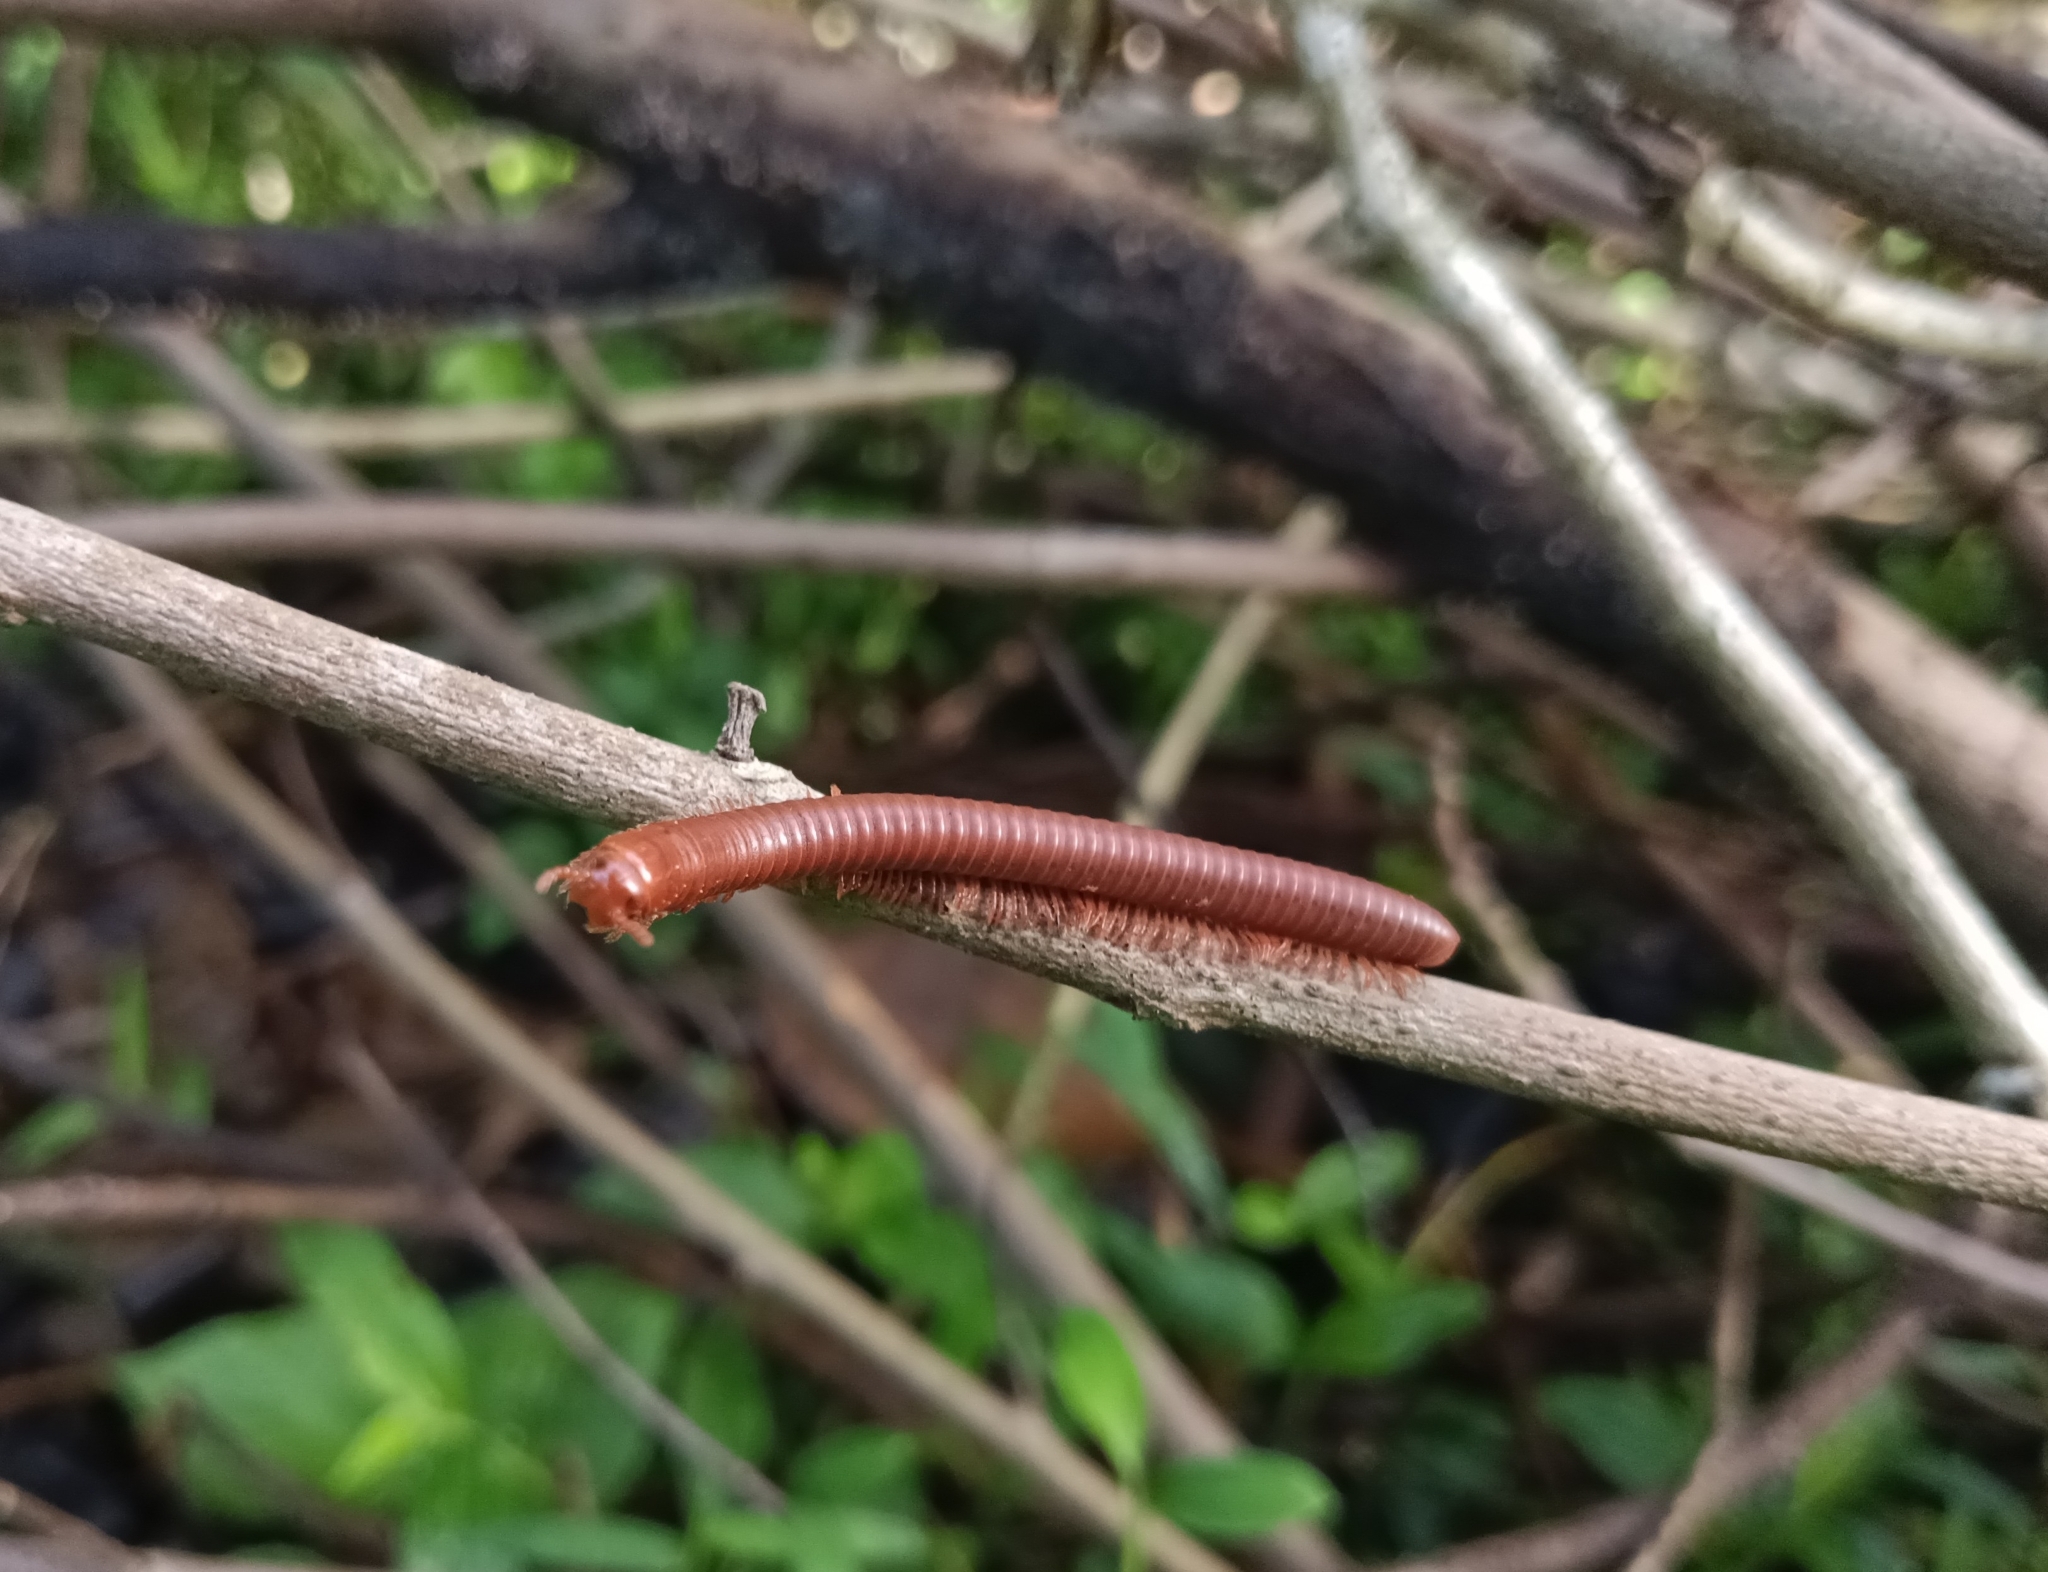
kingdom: Animalia
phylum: Arthropoda
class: Diplopoda
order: Spirobolida
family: Pachybolidae
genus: Trigoniulus
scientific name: Trigoniulus corallinus
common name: Millipede
